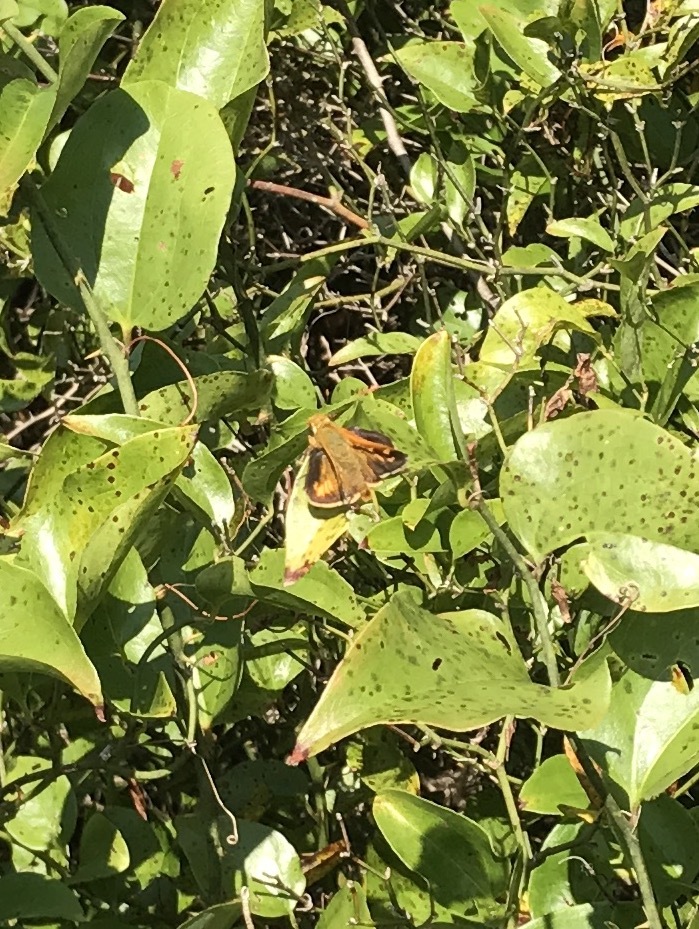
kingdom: Animalia
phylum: Arthropoda
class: Insecta
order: Lepidoptera
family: Hesperiidae
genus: Hesperia
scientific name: Hesperia leonardus
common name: Leonard's skipper
